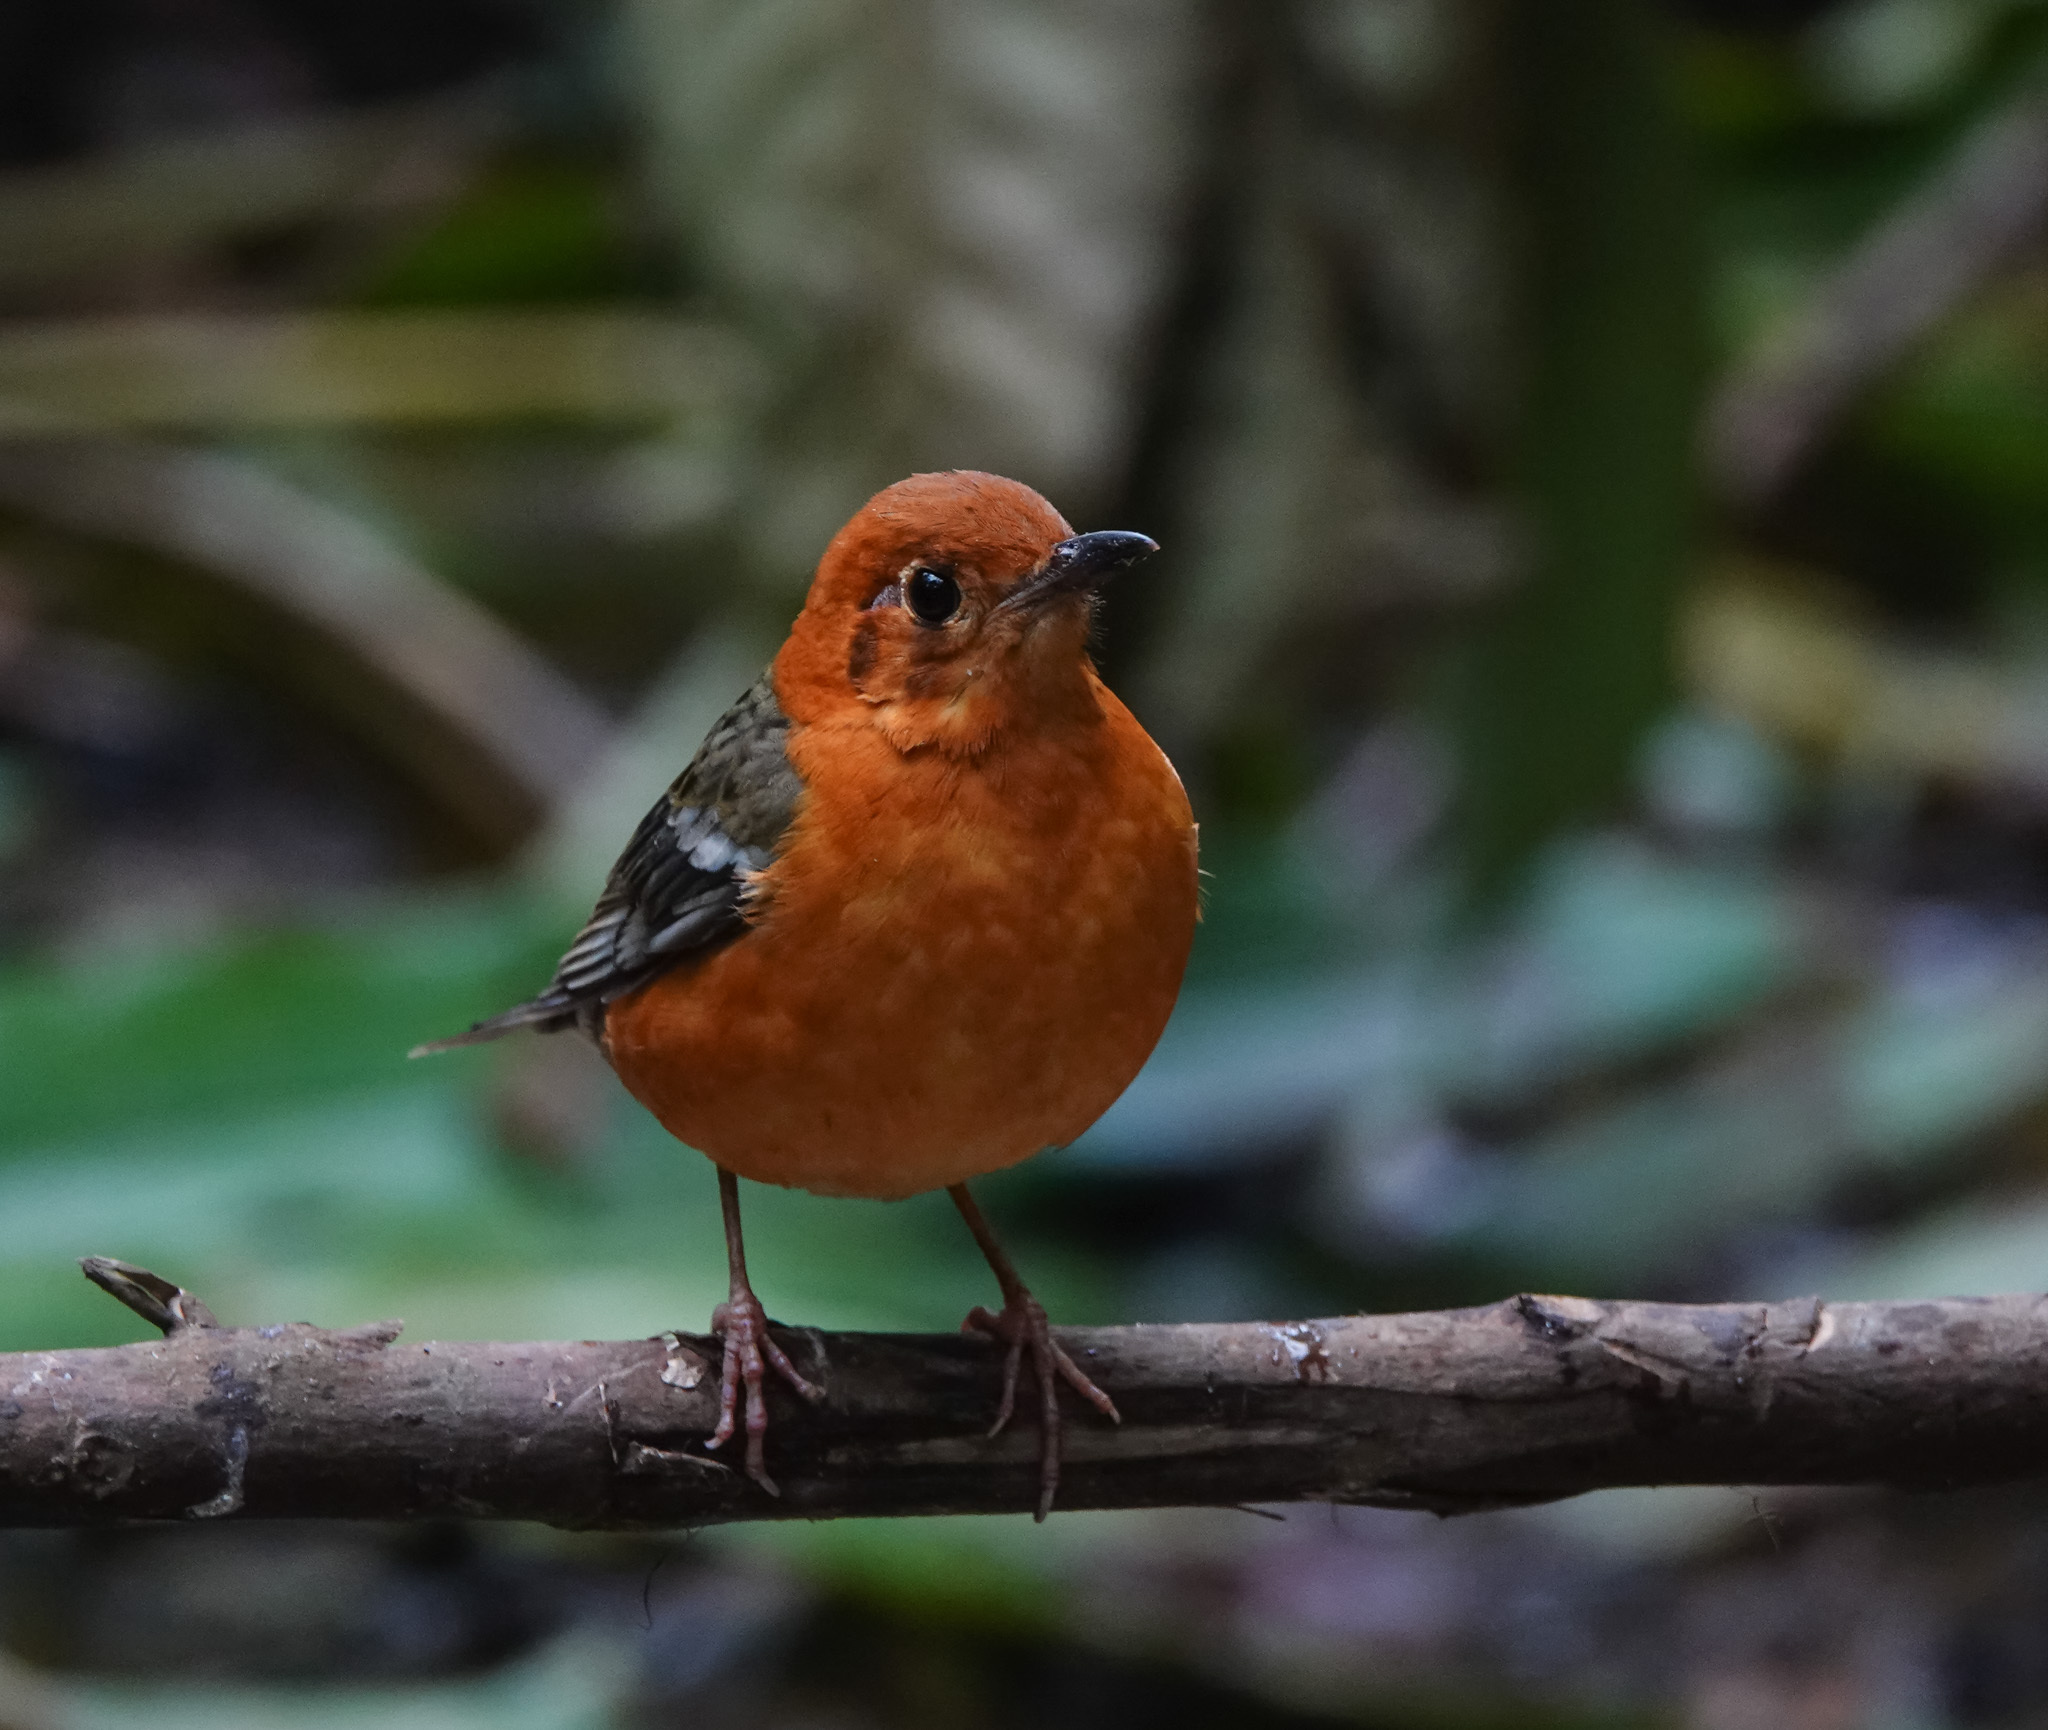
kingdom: Animalia
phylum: Chordata
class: Aves
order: Passeriformes
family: Turdidae
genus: Geokichla
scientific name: Geokichla citrina
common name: Orange-headed thrush
